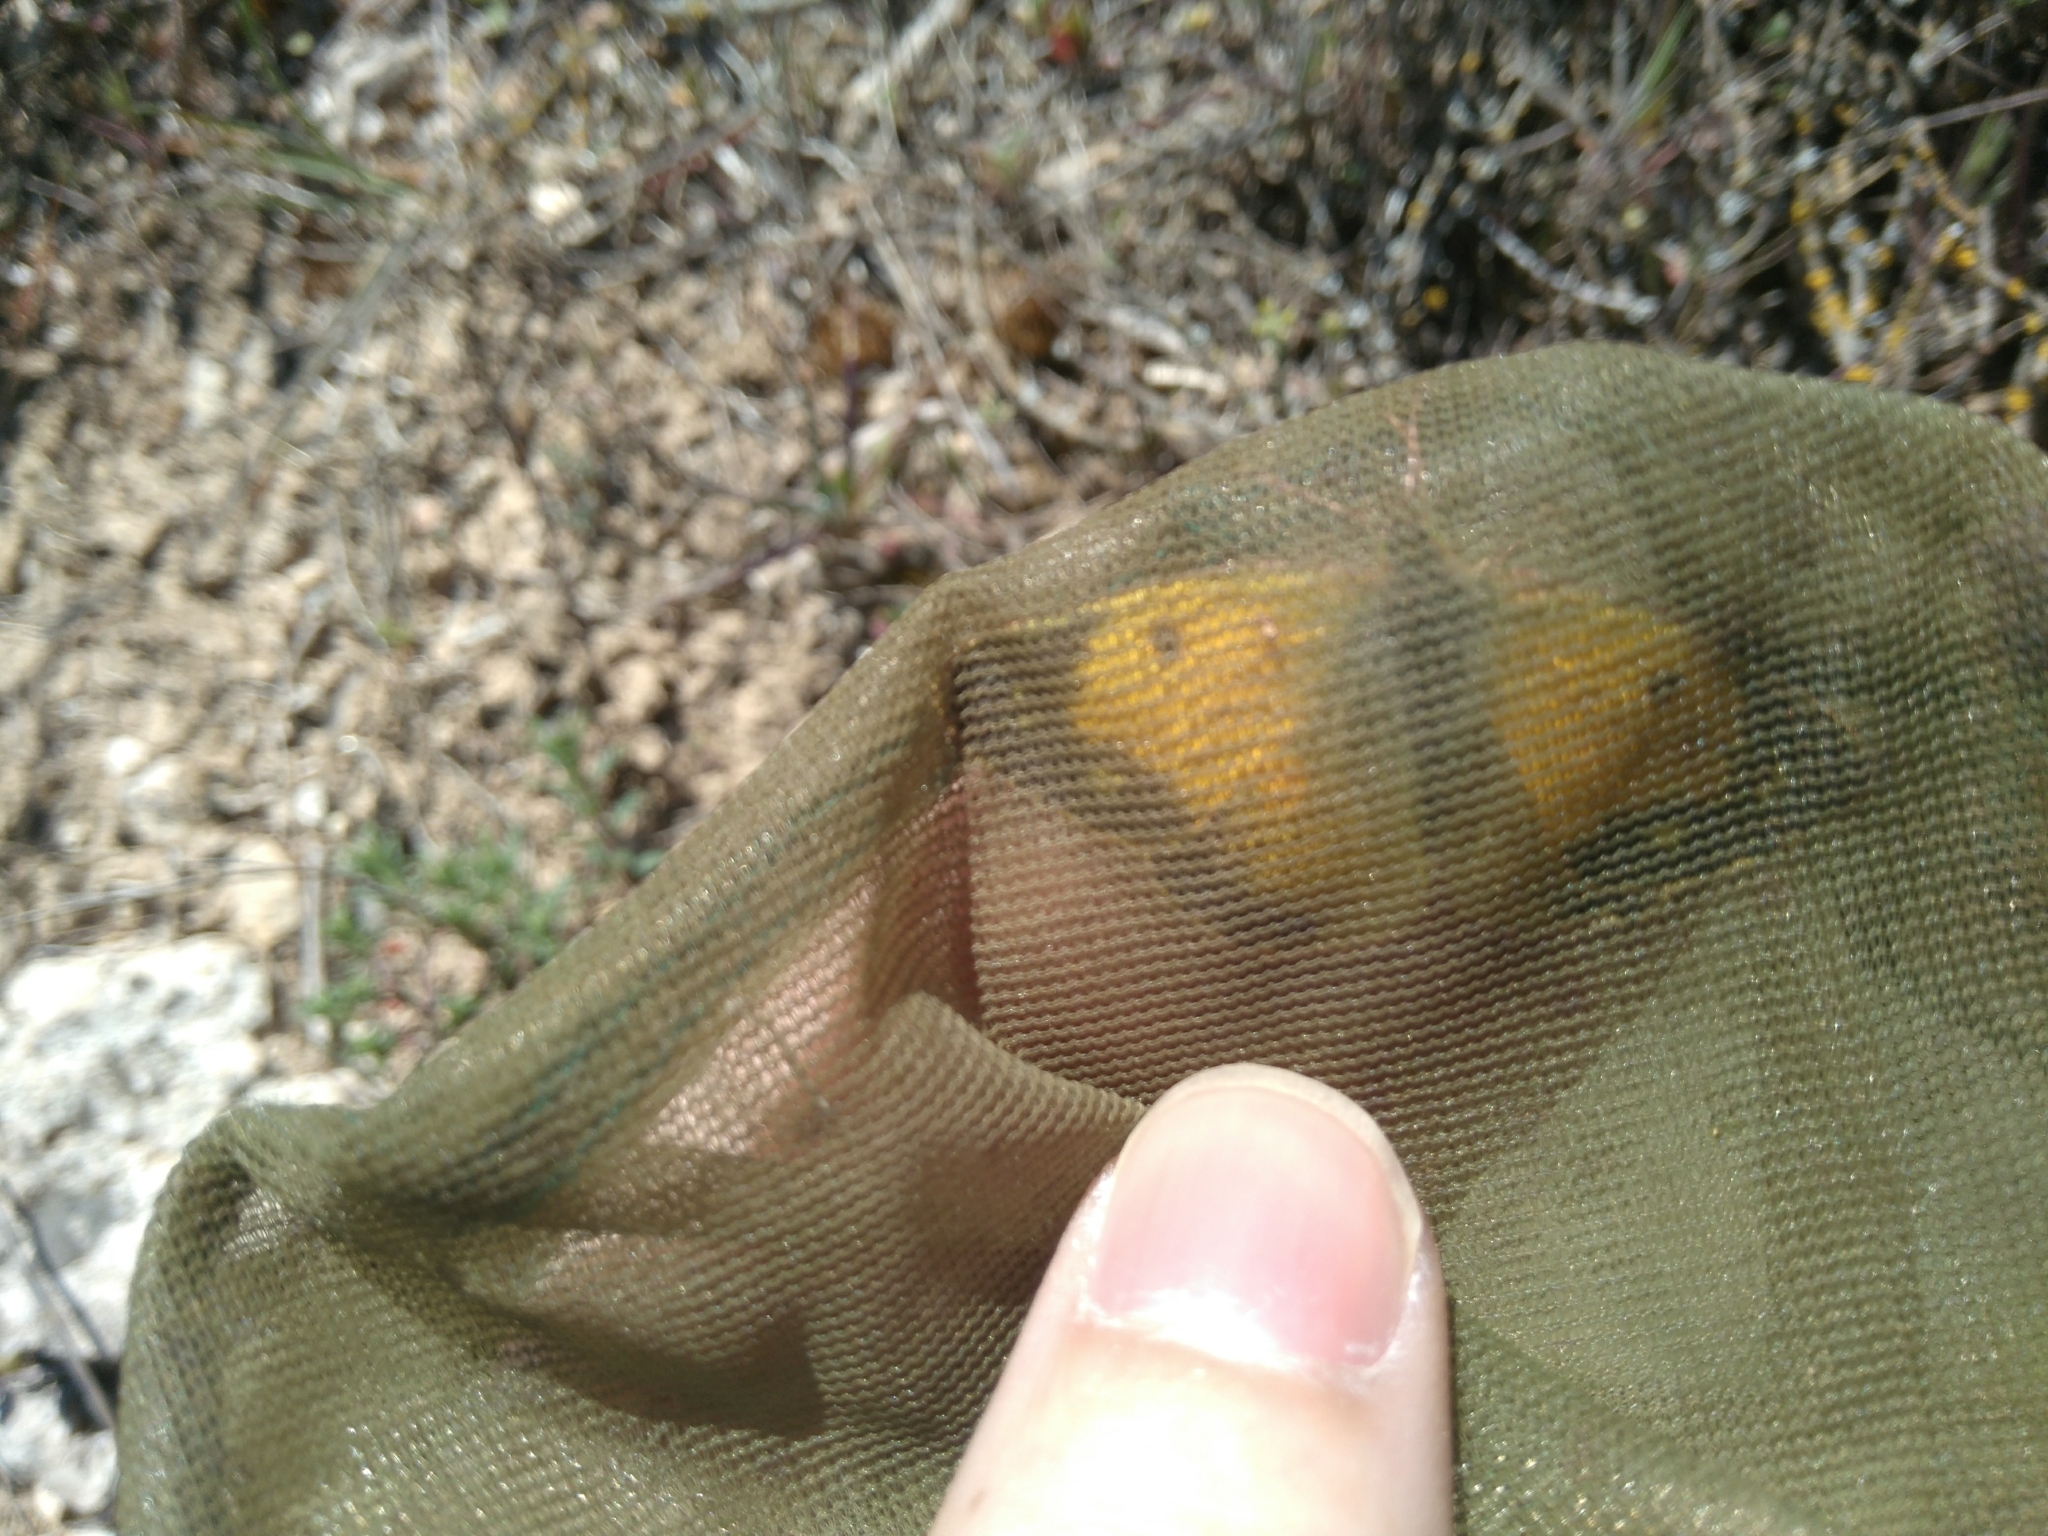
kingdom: Animalia
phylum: Arthropoda
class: Insecta
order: Lepidoptera
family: Pieridae
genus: Colias
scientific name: Colias croceus
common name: Clouded yellow
